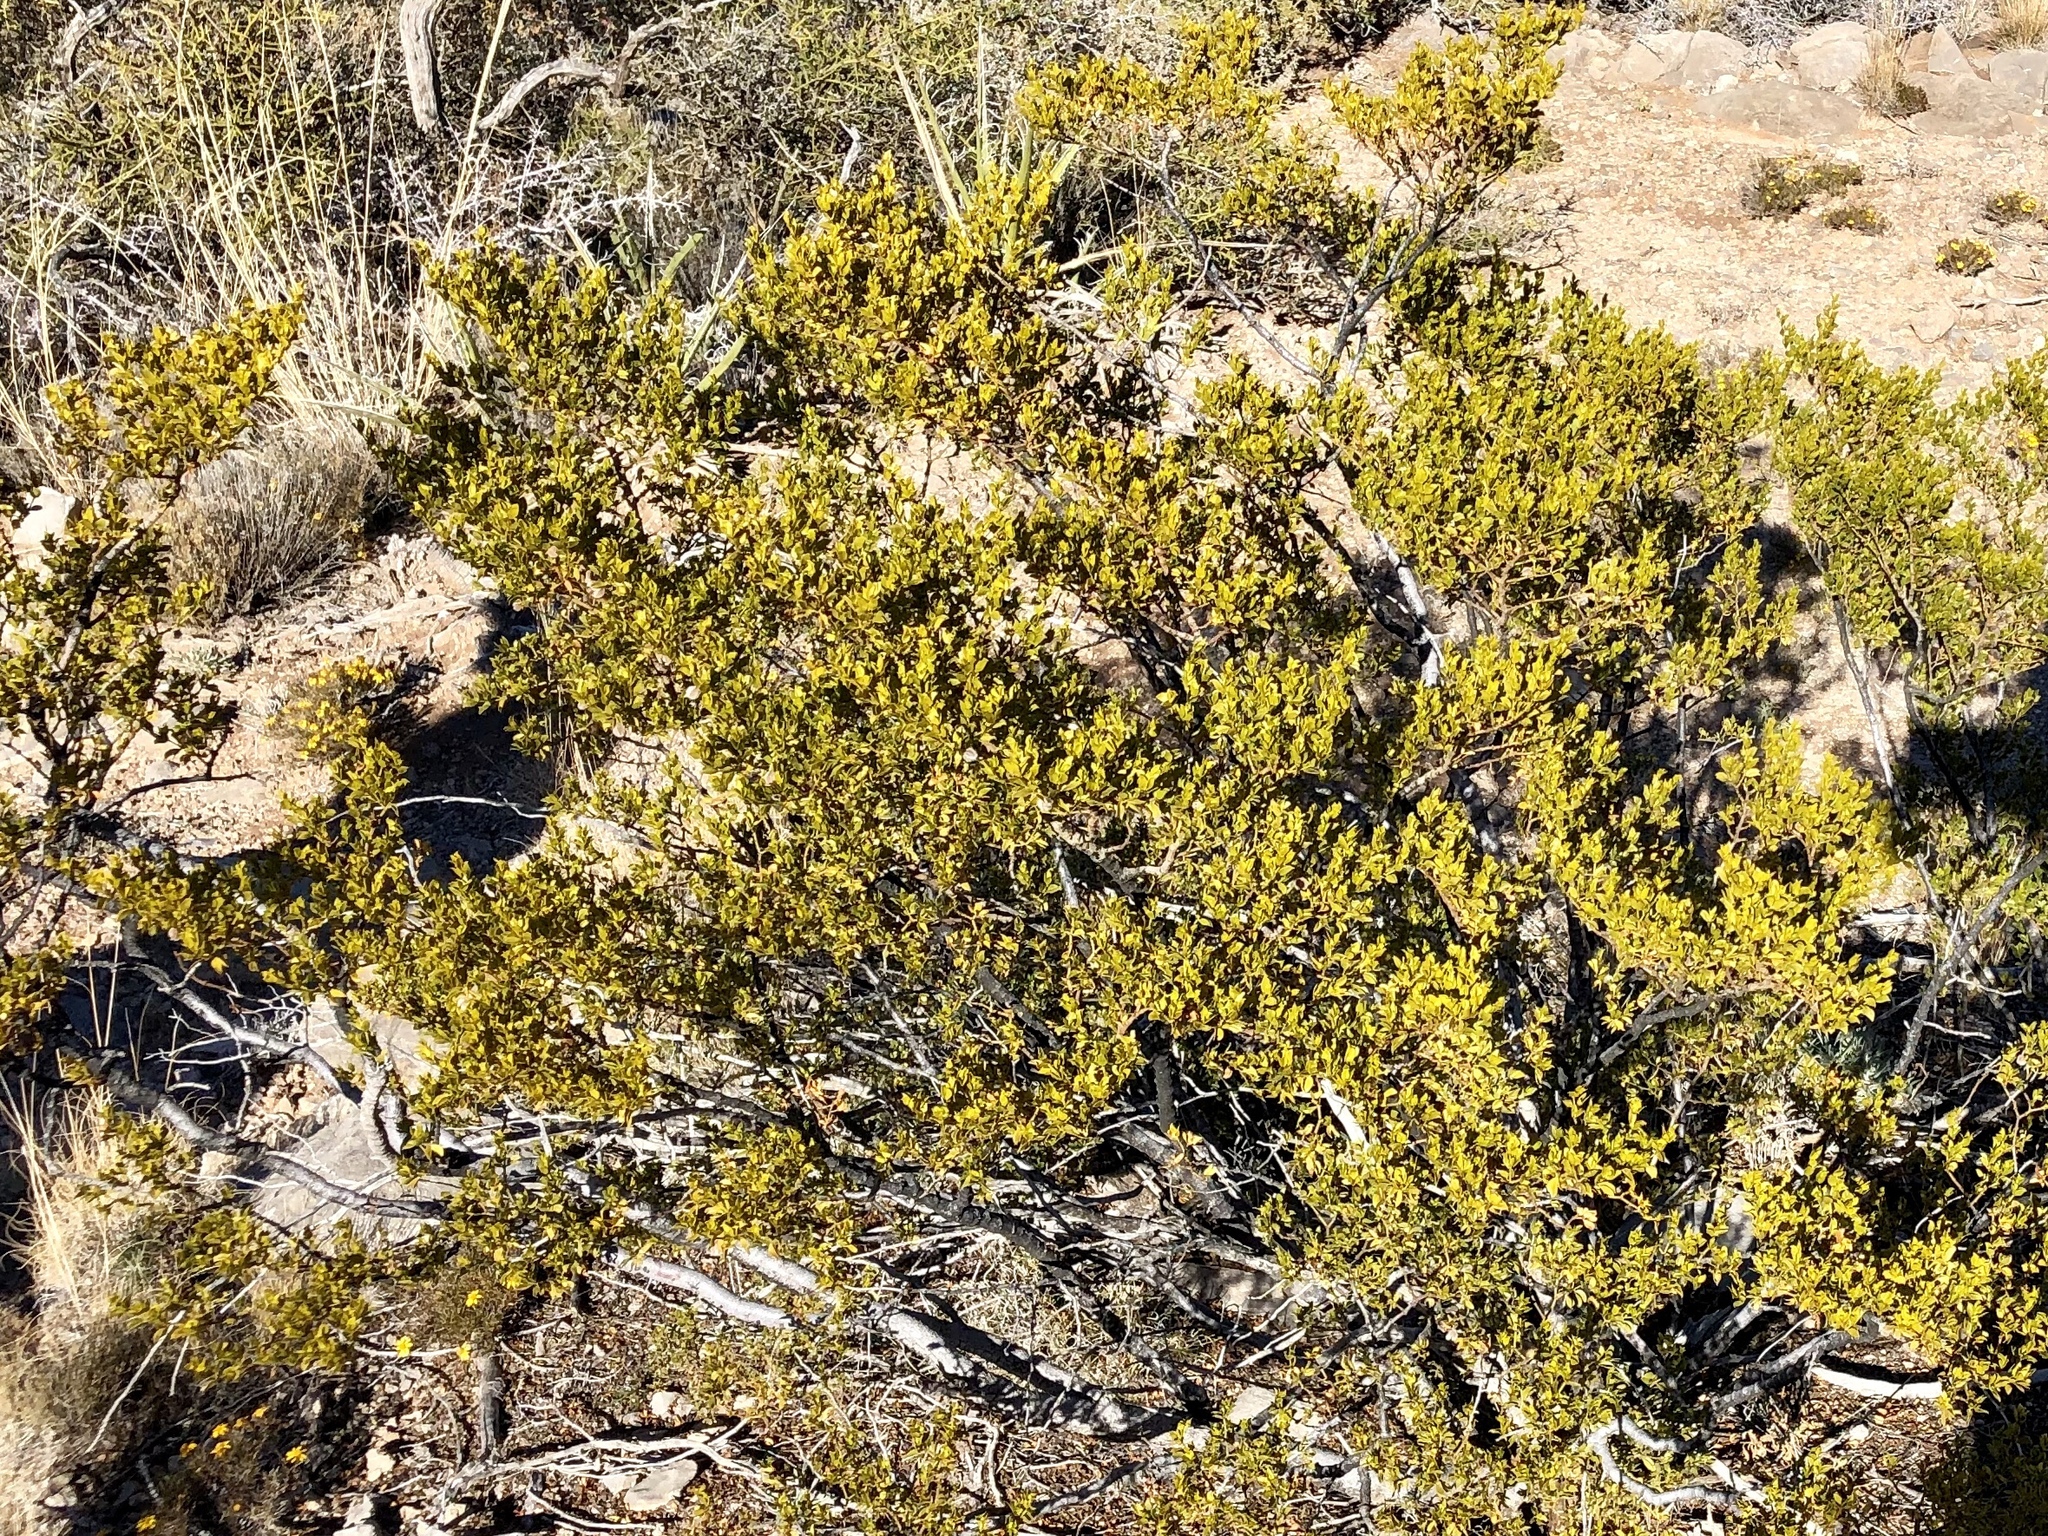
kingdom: Plantae
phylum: Tracheophyta
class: Magnoliopsida
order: Zygophyllales
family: Zygophyllaceae
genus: Larrea
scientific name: Larrea tridentata
